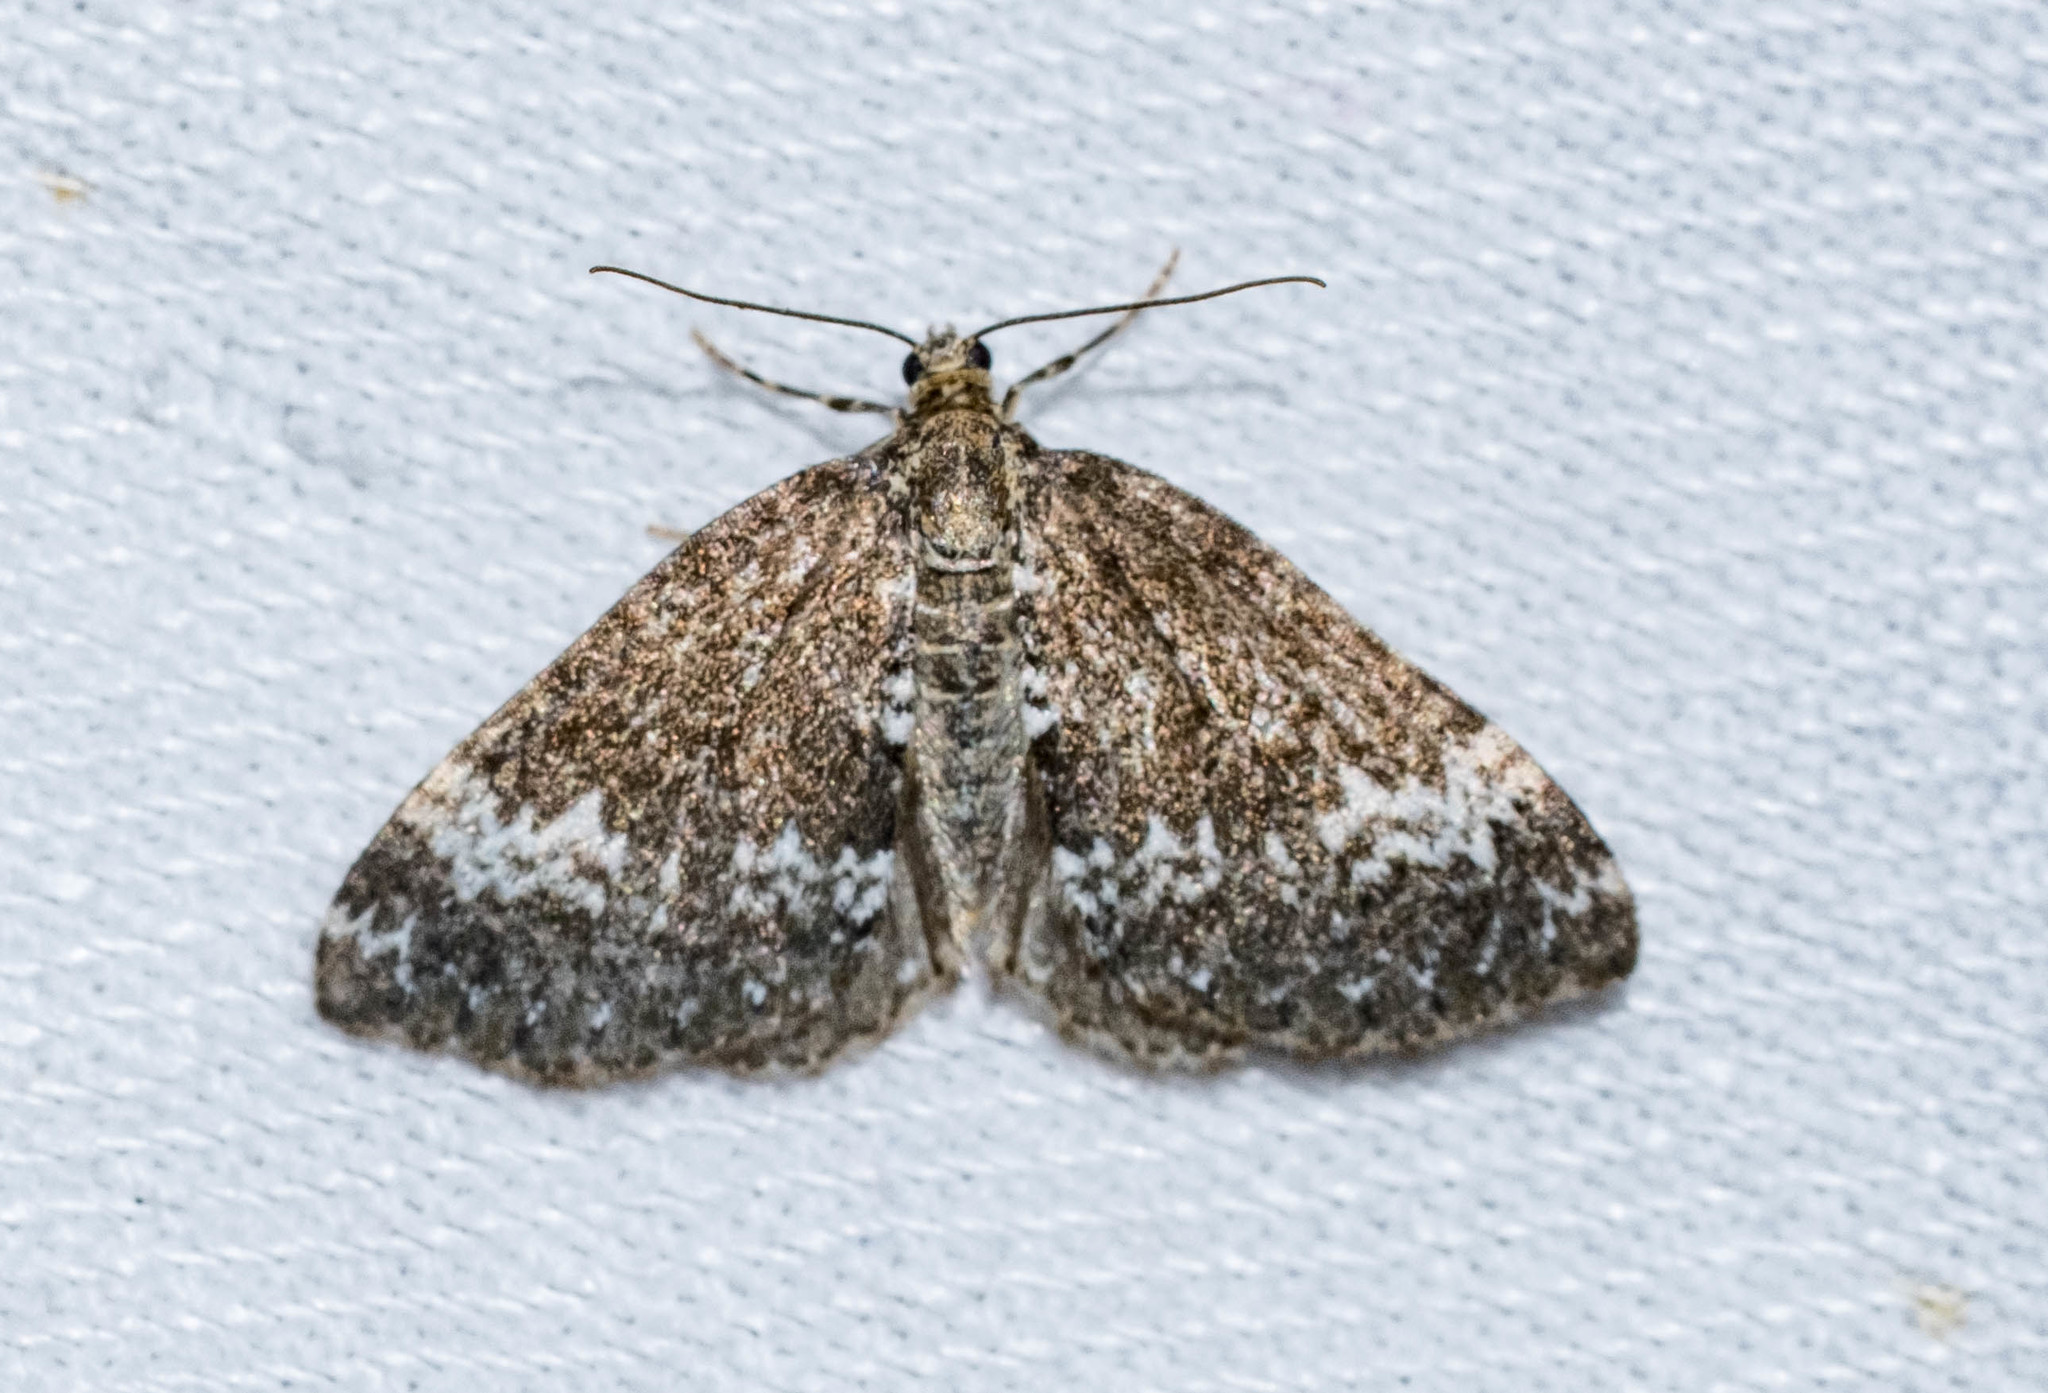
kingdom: Animalia
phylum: Arthropoda
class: Insecta
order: Lepidoptera
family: Geometridae
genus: Perizoma
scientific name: Perizoma alchemillata
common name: Small rivulet
